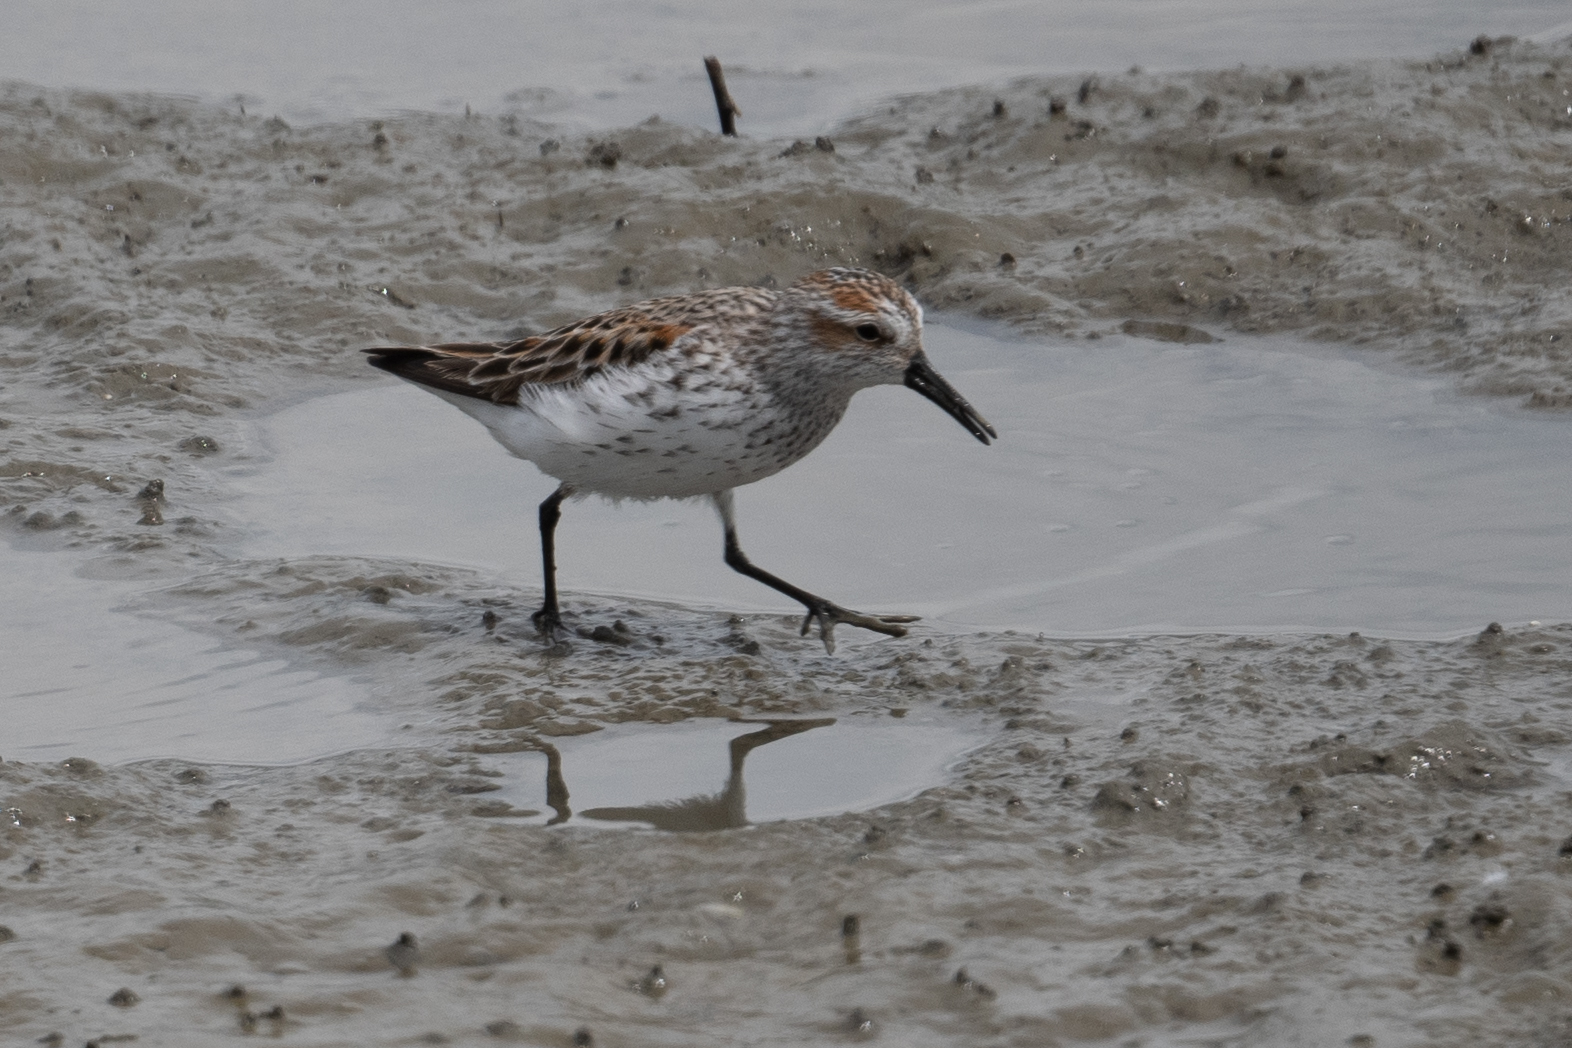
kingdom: Animalia
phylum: Chordata
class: Aves
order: Charadriiformes
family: Scolopacidae
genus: Calidris
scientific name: Calidris mauri
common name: Western sandpiper
